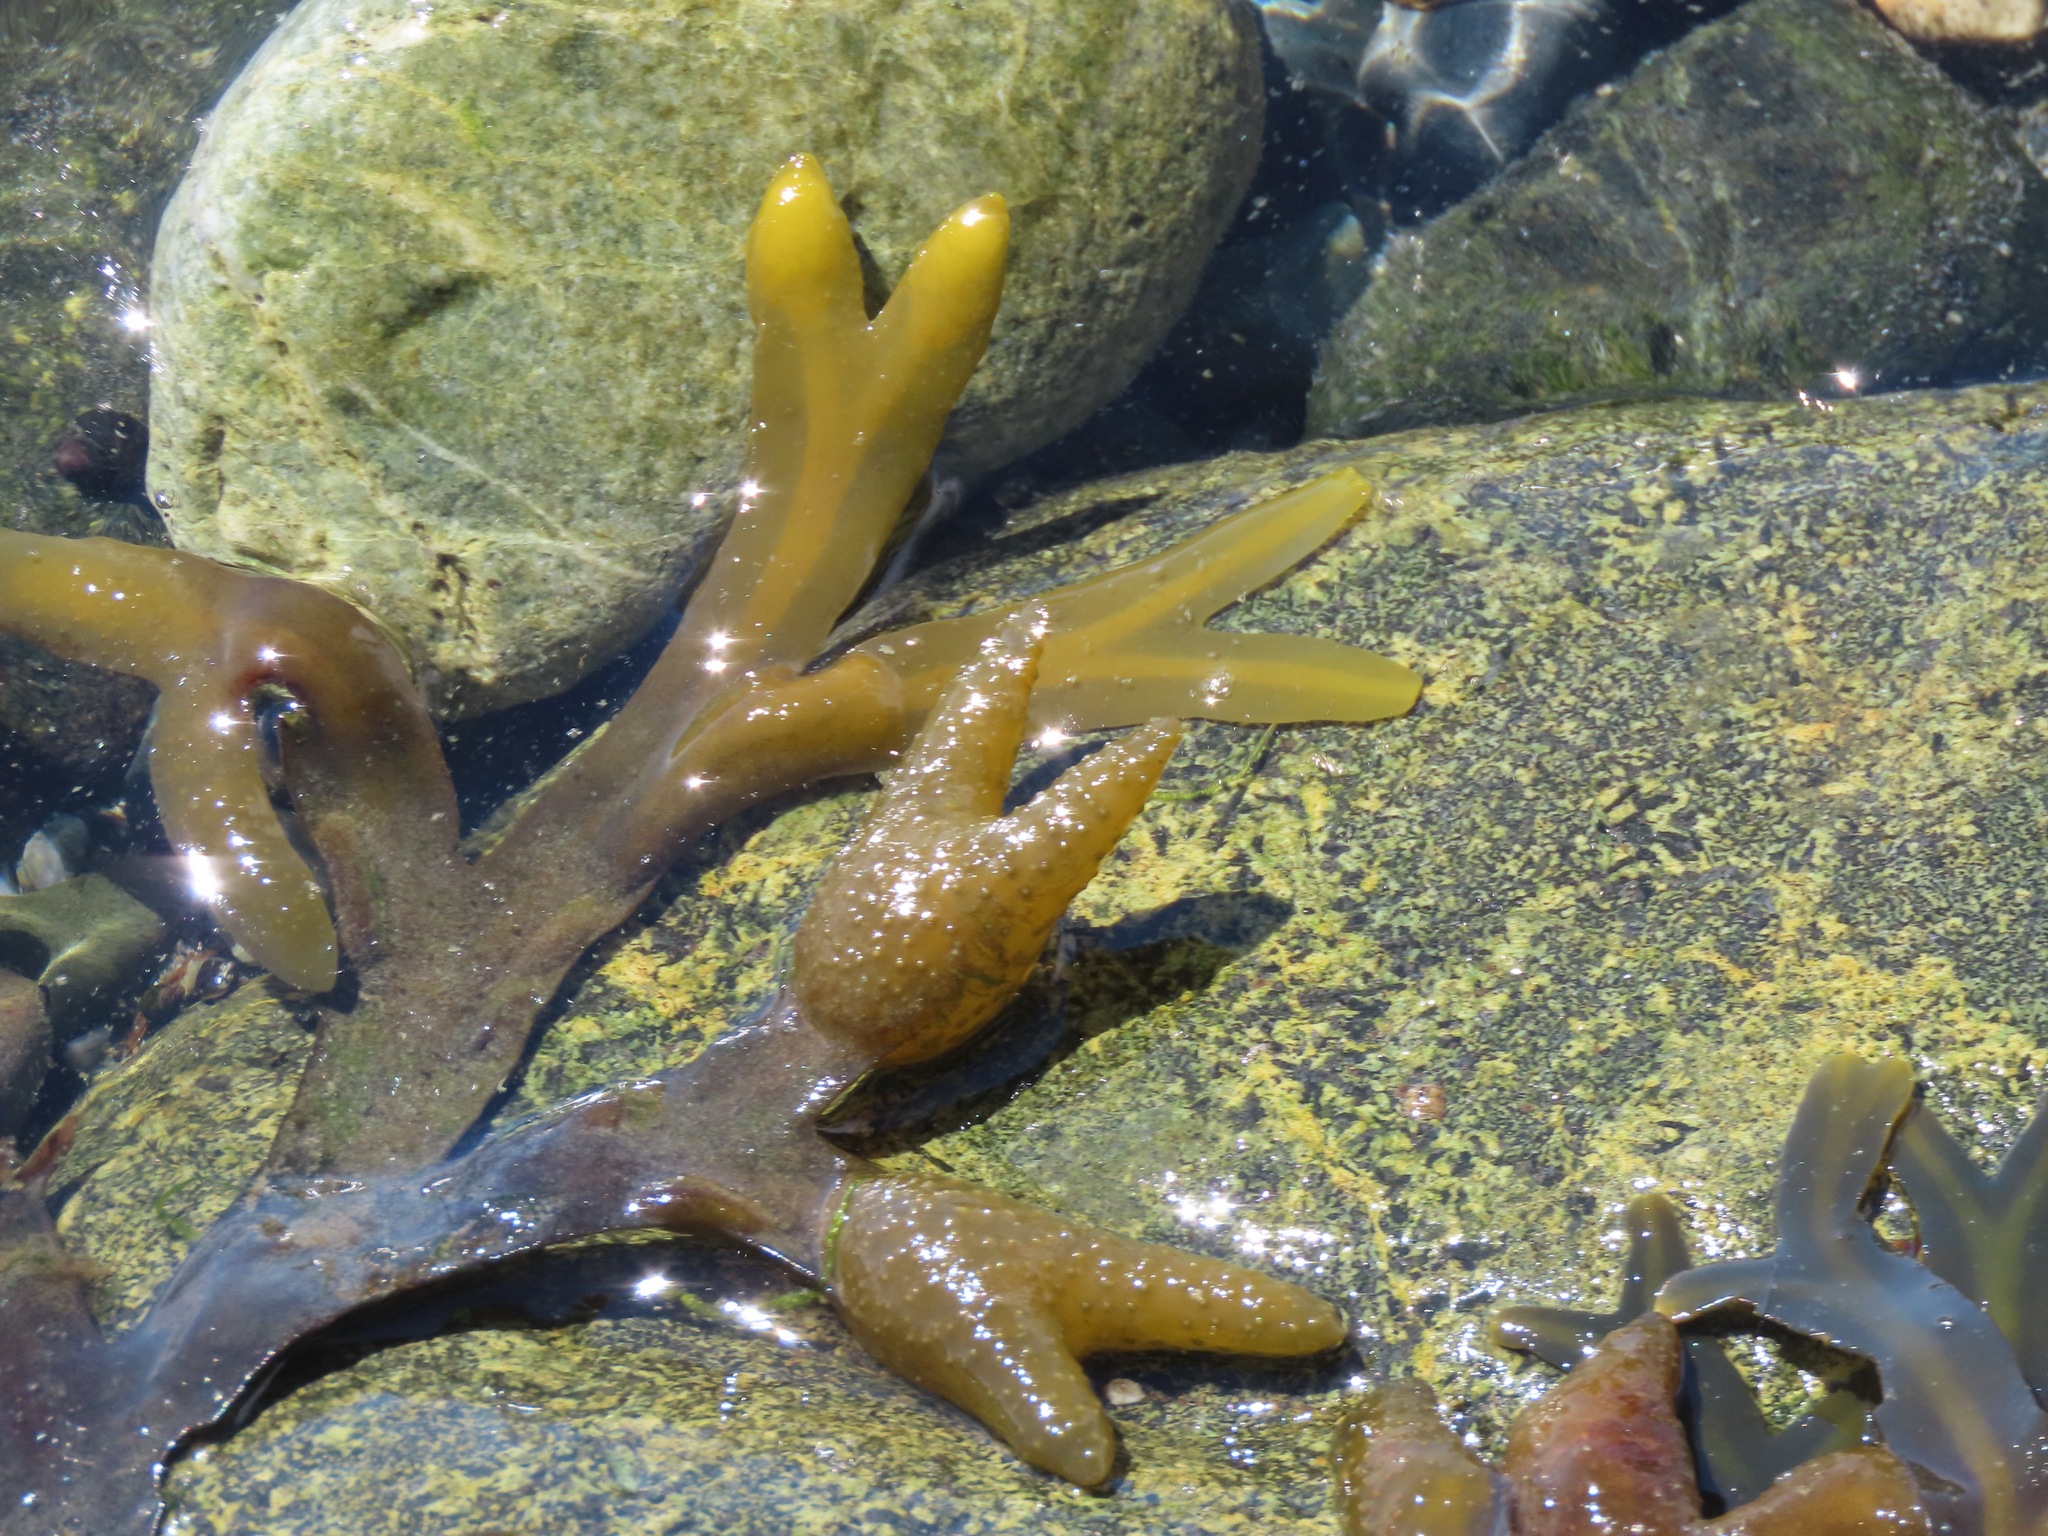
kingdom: Chromista
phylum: Ochrophyta
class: Phaeophyceae
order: Fucales
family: Fucaceae
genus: Fucus
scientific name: Fucus distichus
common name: Rockweed
